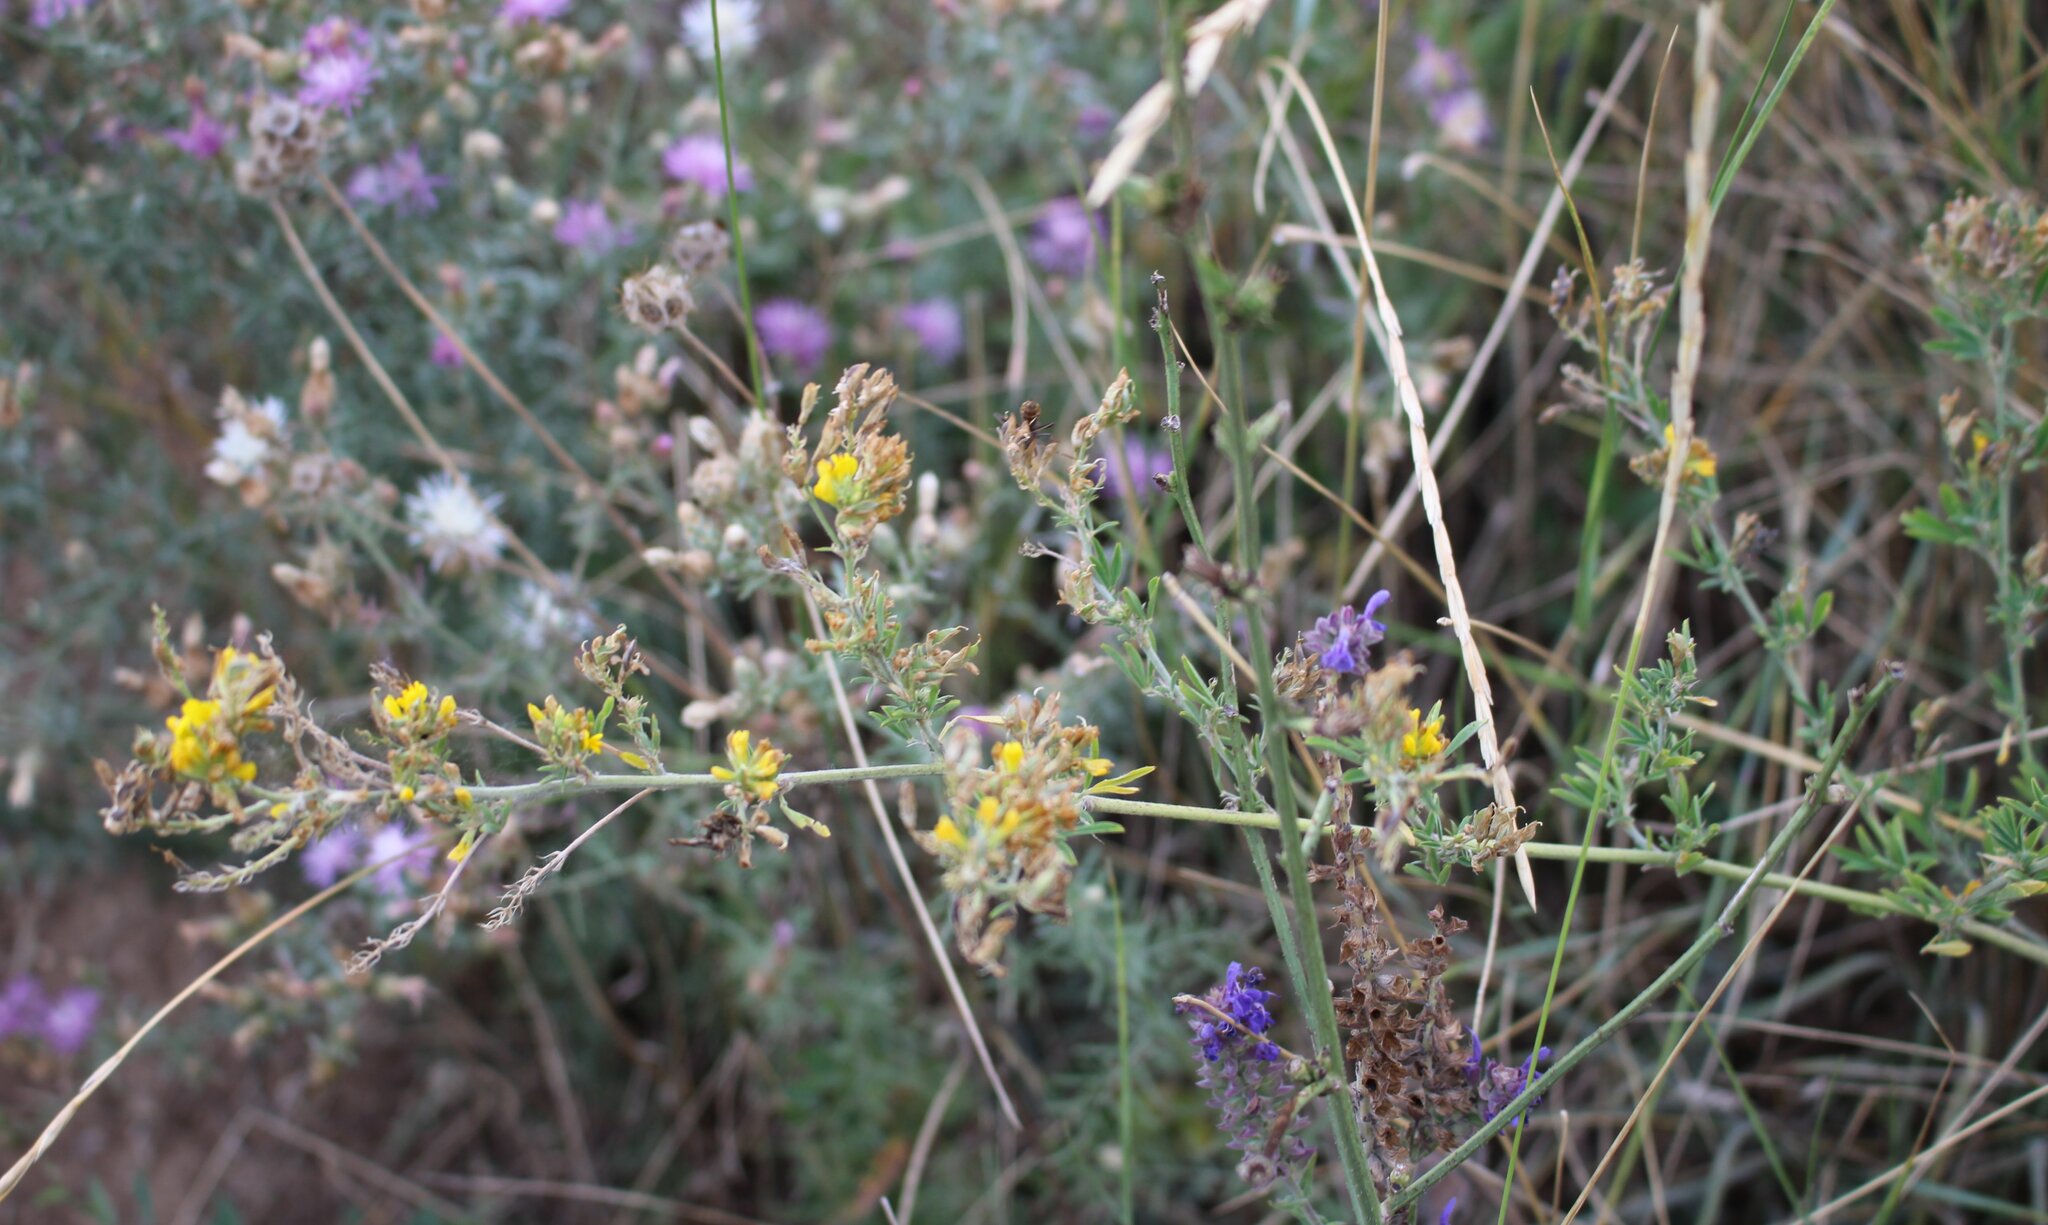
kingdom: Plantae
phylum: Tracheophyta
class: Magnoliopsida
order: Fabales
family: Fabaceae
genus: Medicago
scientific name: Medicago falcata
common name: Sickle medick
